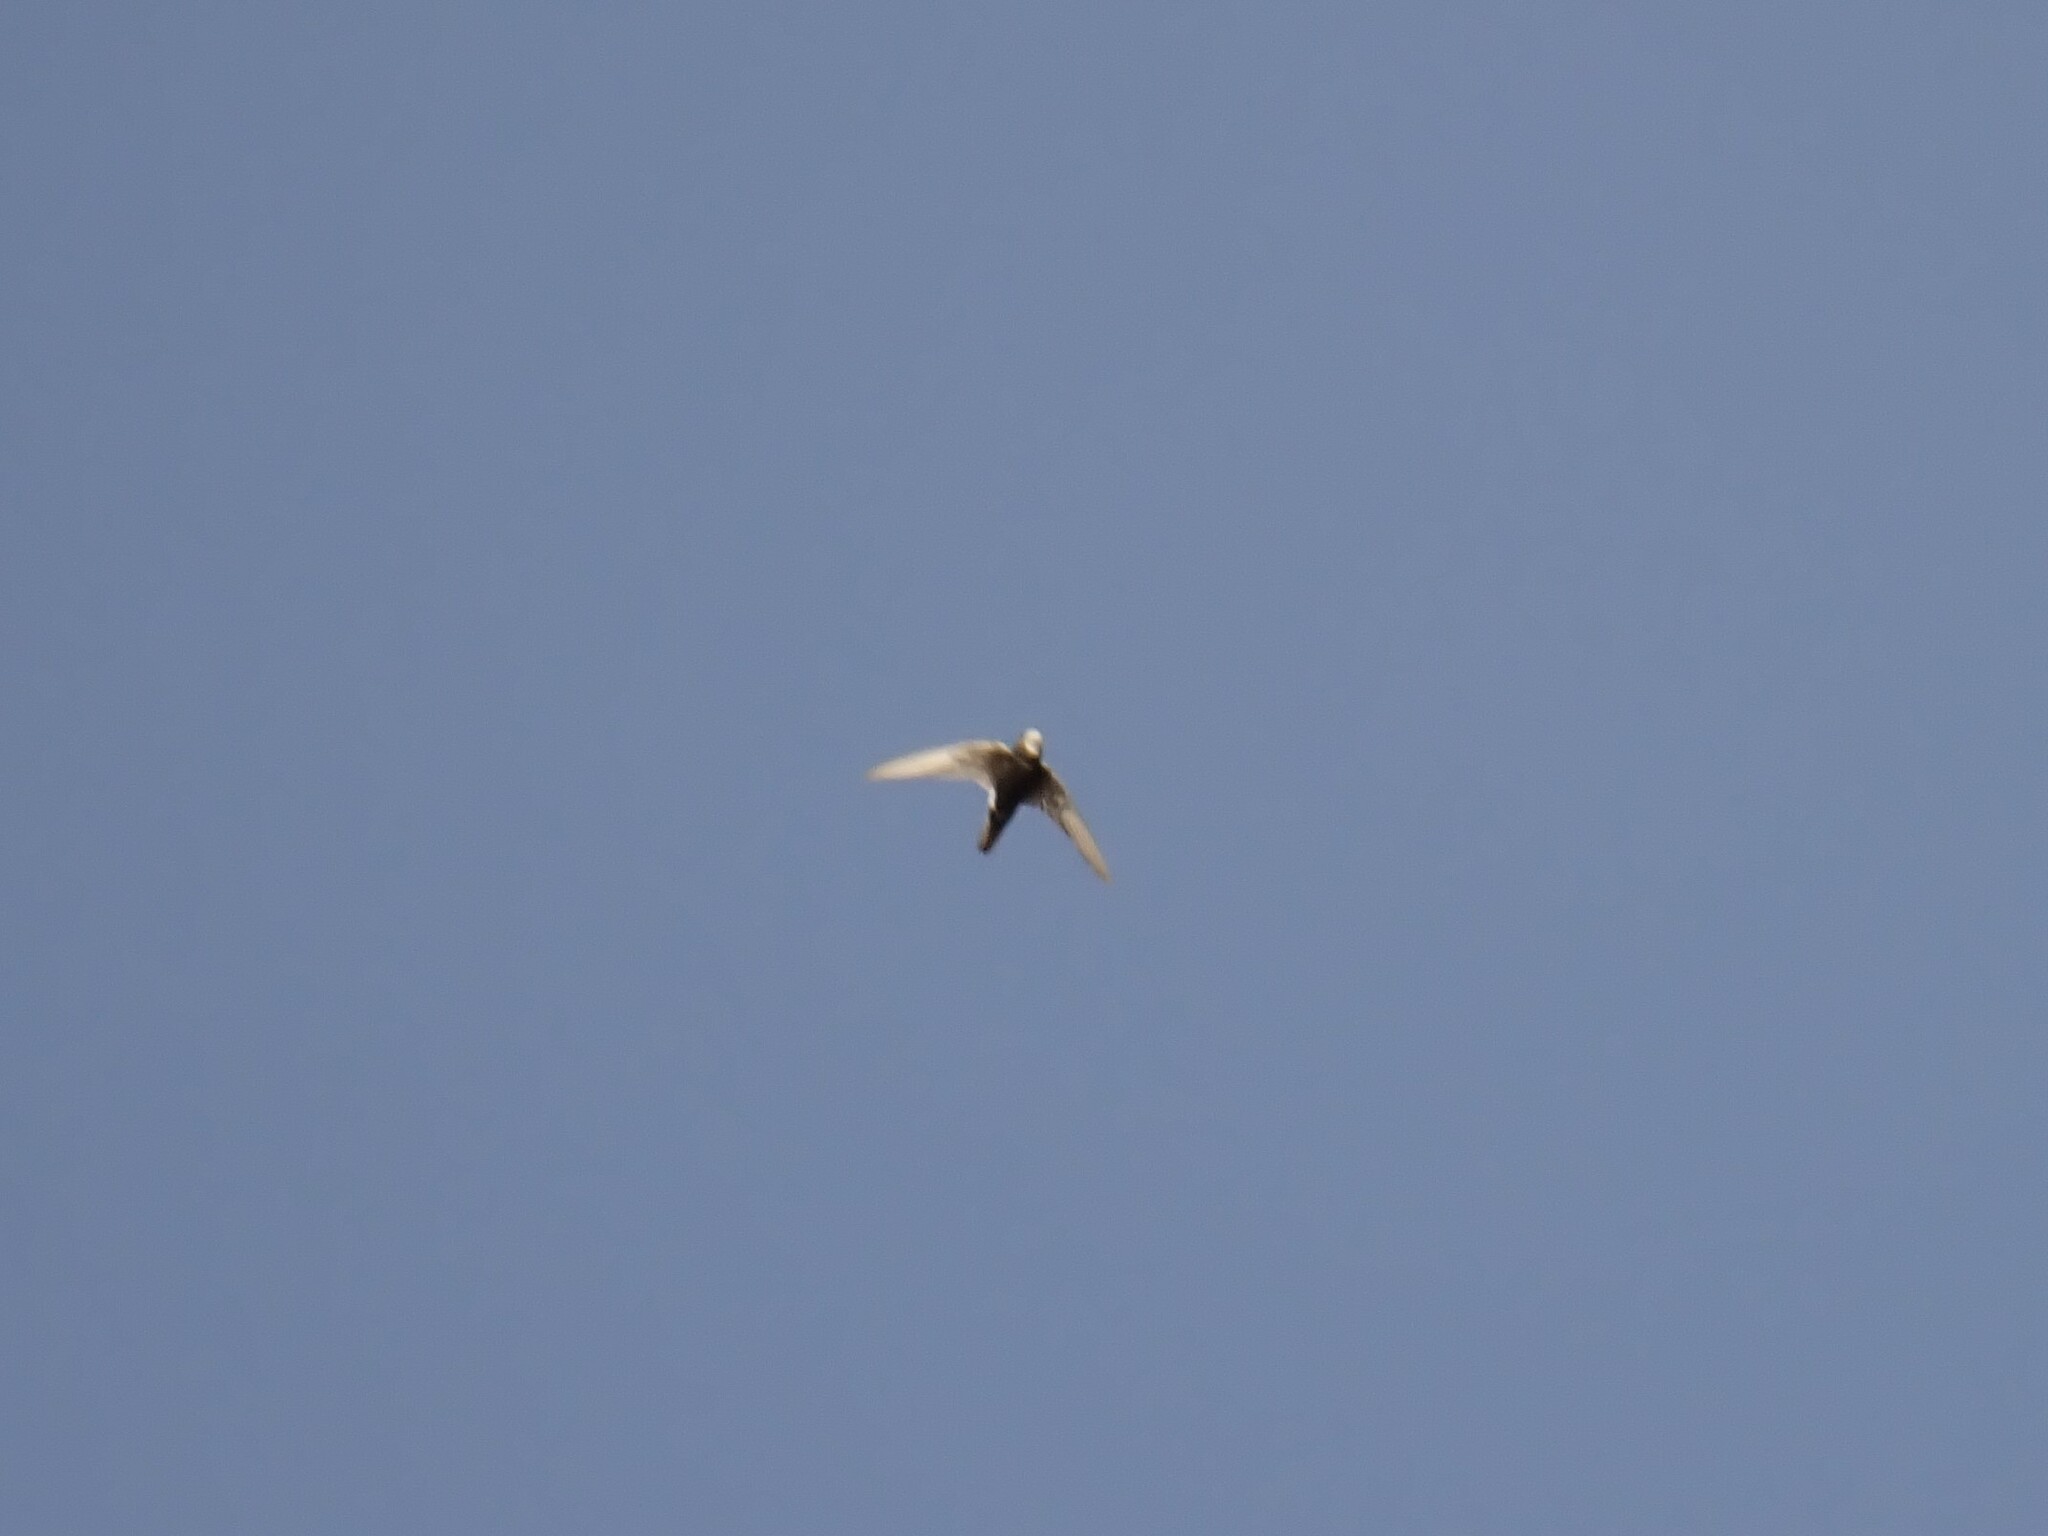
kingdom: Animalia
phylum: Chordata
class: Aves
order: Apodiformes
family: Apodidae
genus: Apus
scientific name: Apus affinis
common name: Little swift
